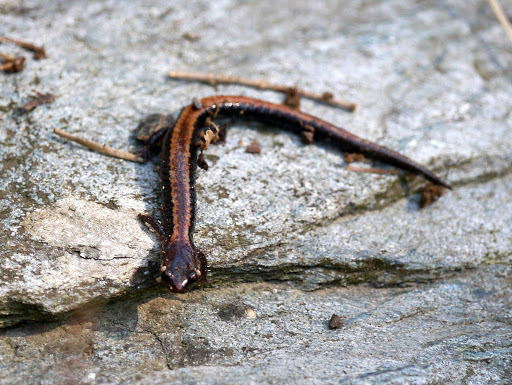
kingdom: Animalia
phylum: Chordata
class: Amphibia
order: Caudata
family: Plethodontidae
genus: Plethodon
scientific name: Plethodon cinereus
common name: Redback salamander
